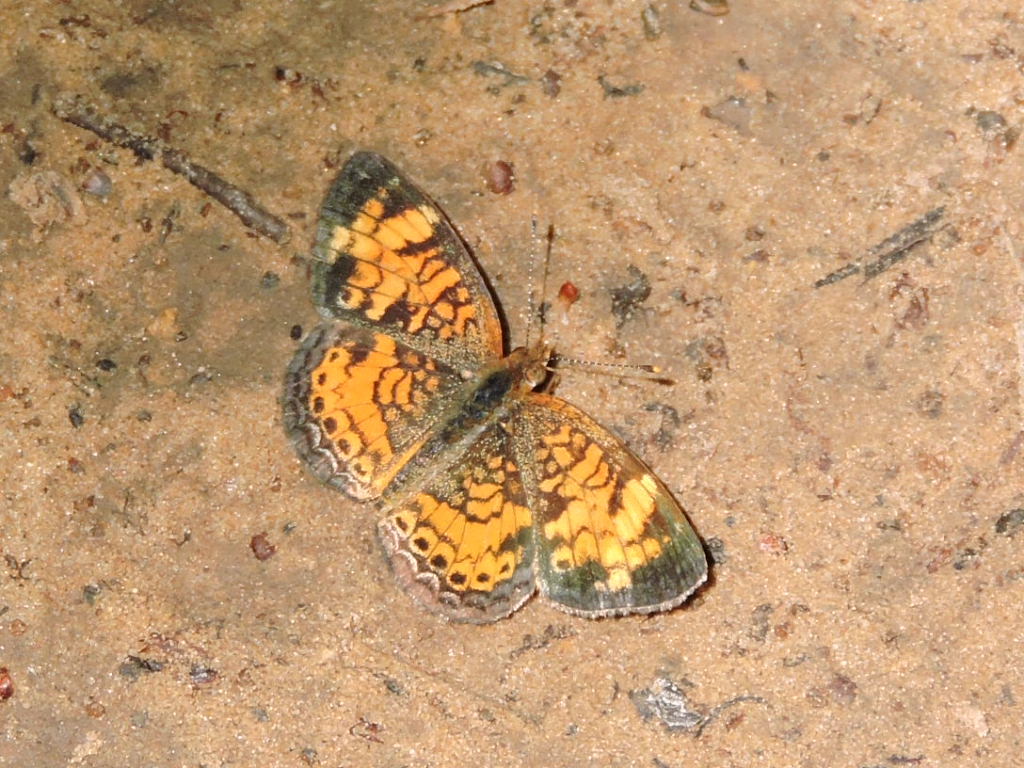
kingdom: Animalia
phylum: Arthropoda
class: Insecta
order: Lepidoptera
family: Nymphalidae
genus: Phyciodes
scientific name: Phyciodes tharos
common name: Pearl crescent
